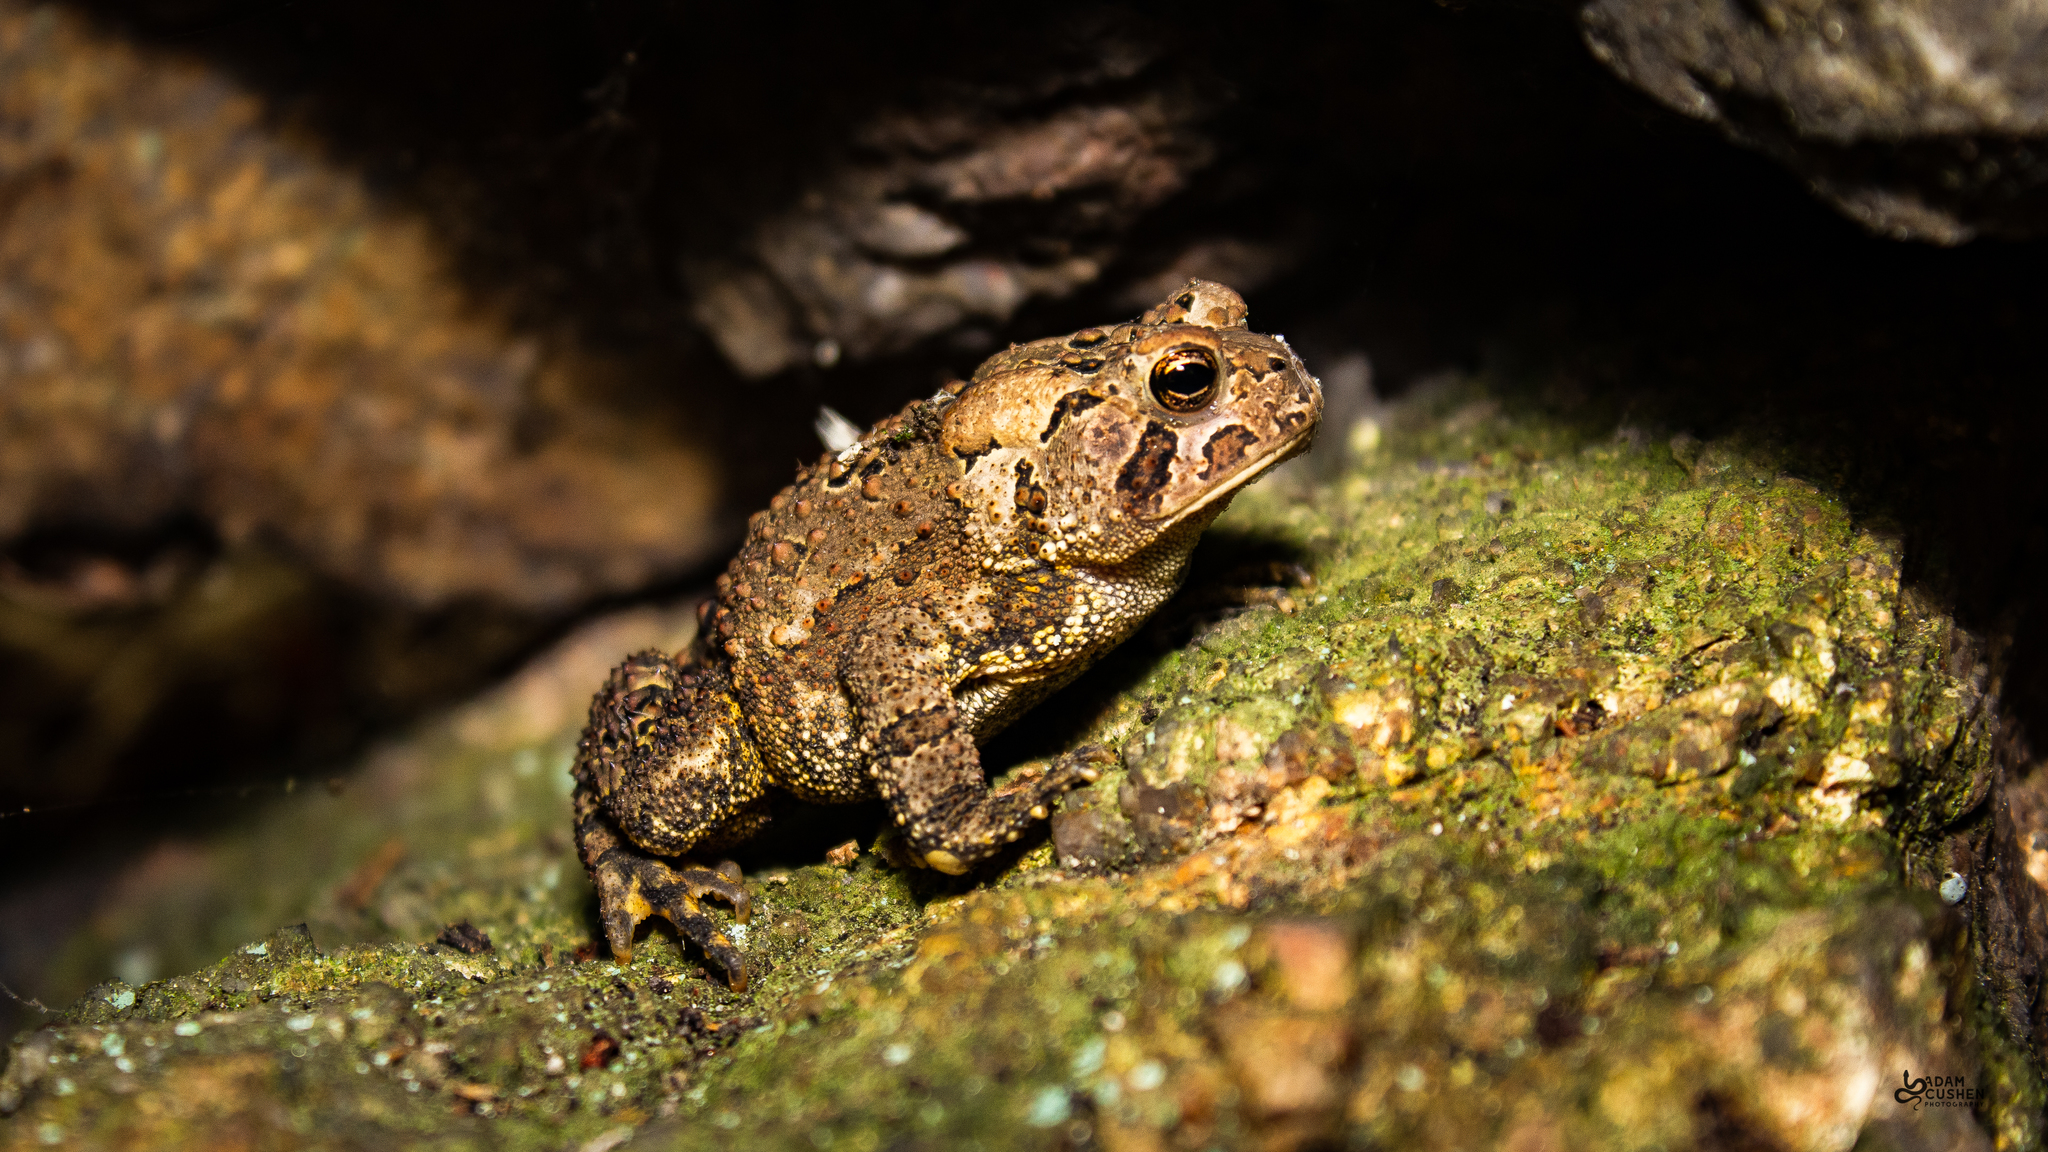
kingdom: Animalia
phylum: Chordata
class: Amphibia
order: Anura
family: Bufonidae
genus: Anaxyrus
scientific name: Anaxyrus americanus
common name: American toad
